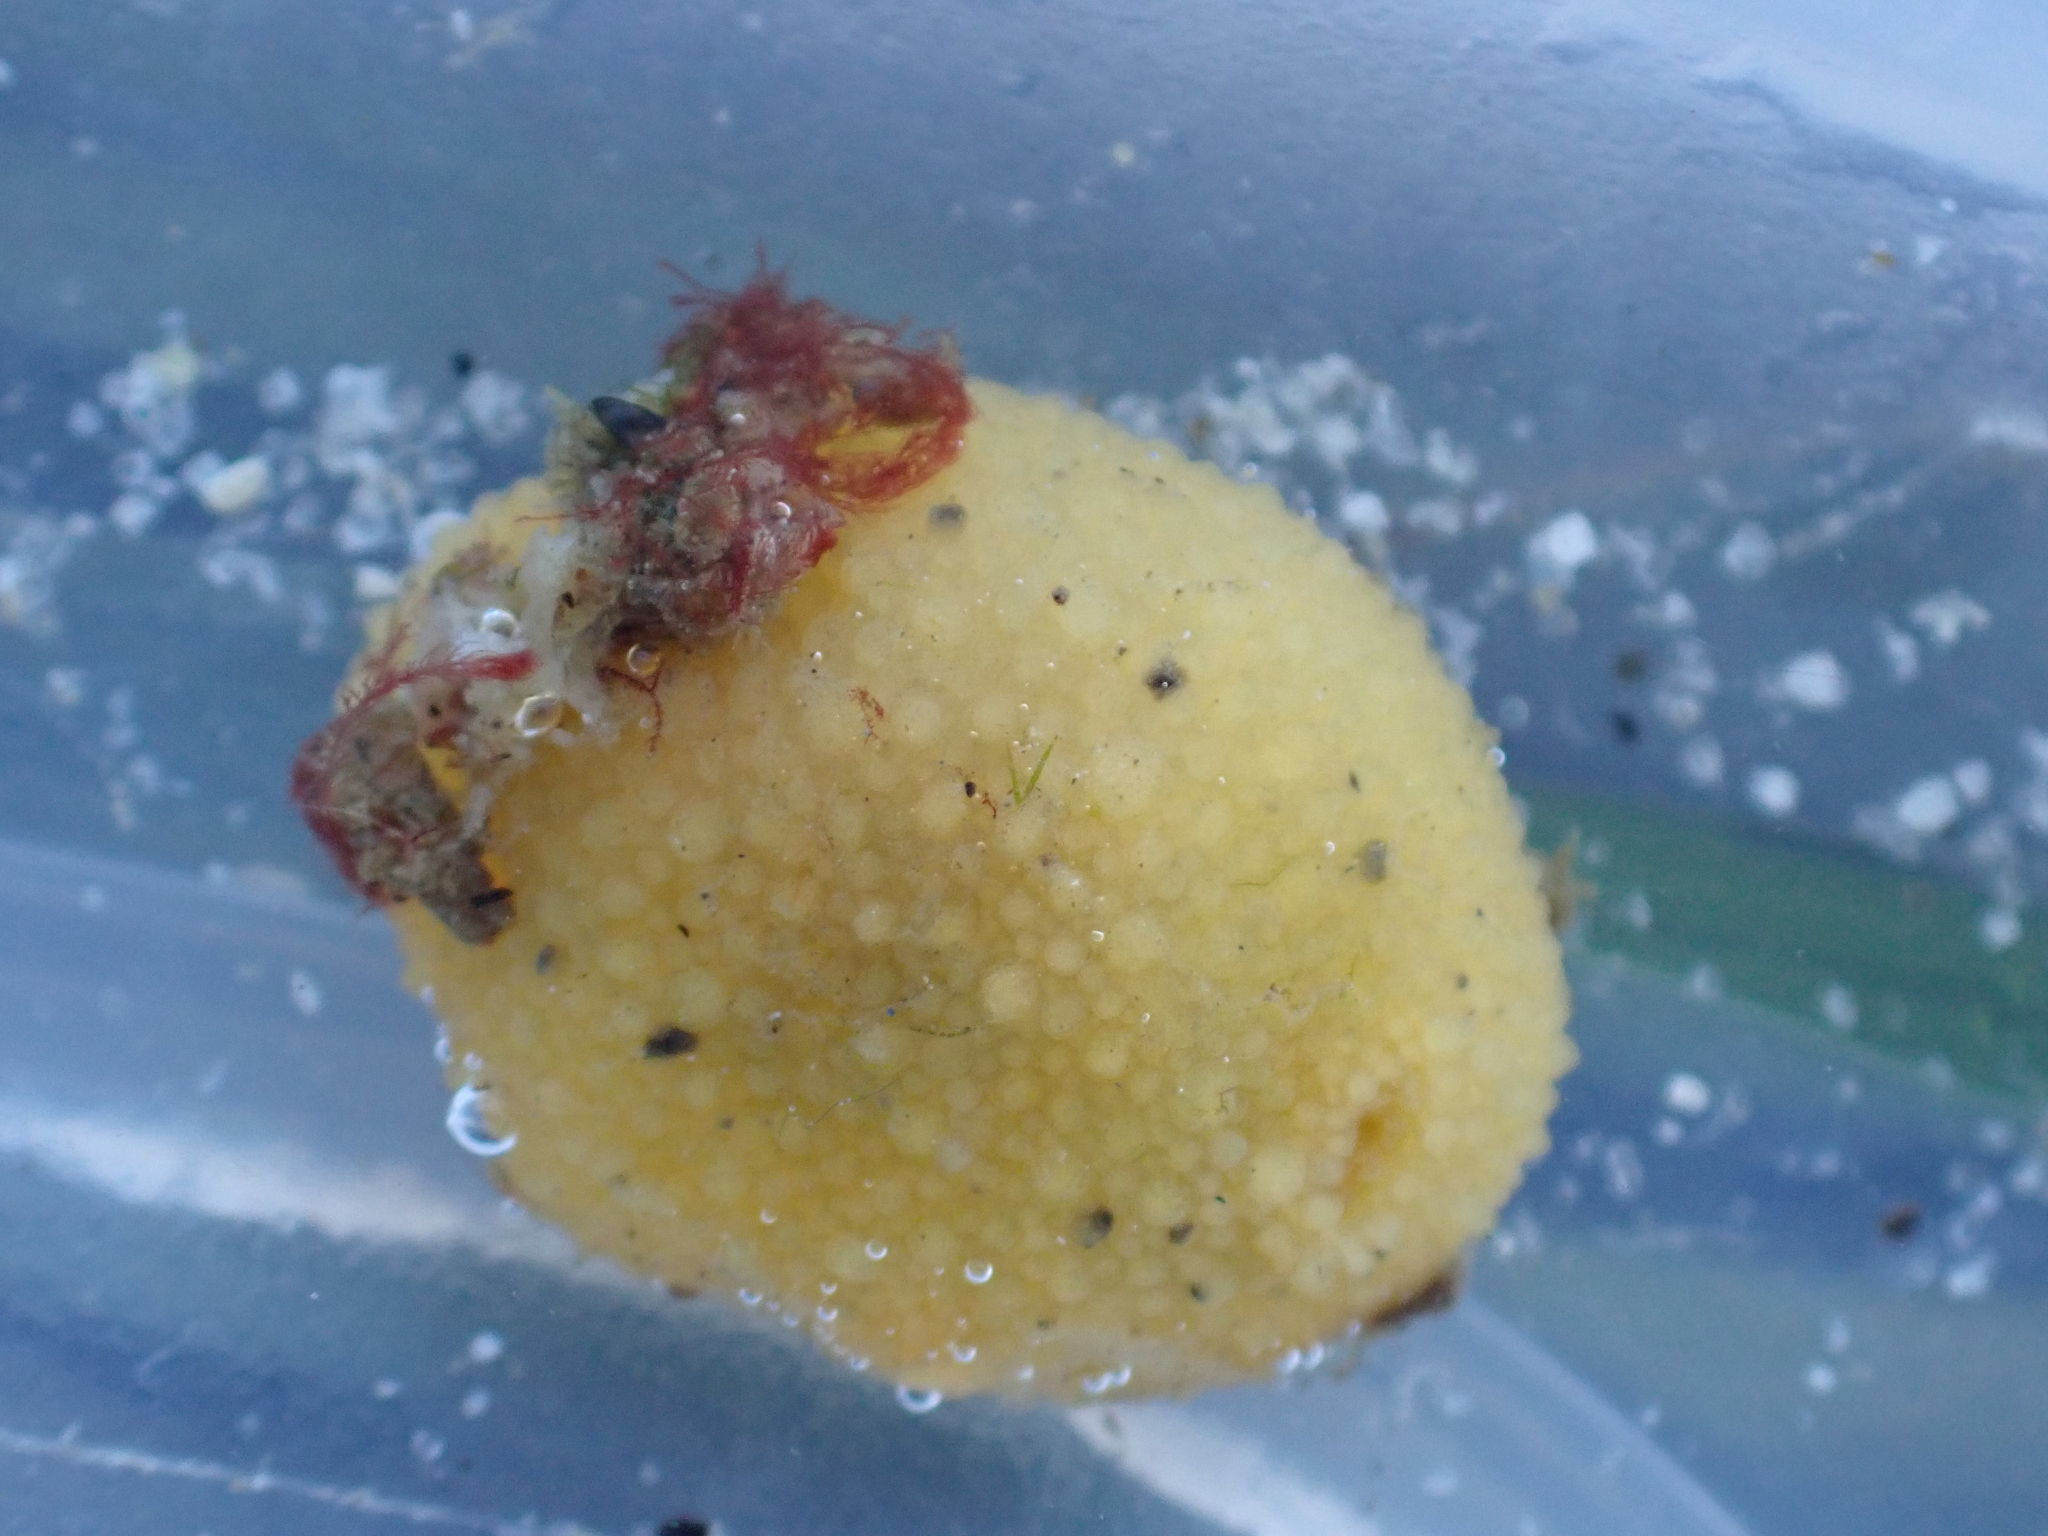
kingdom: Animalia
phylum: Mollusca
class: Gastropoda
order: Nudibranchia
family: Dorididae
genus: Doris
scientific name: Doris montereyensis
